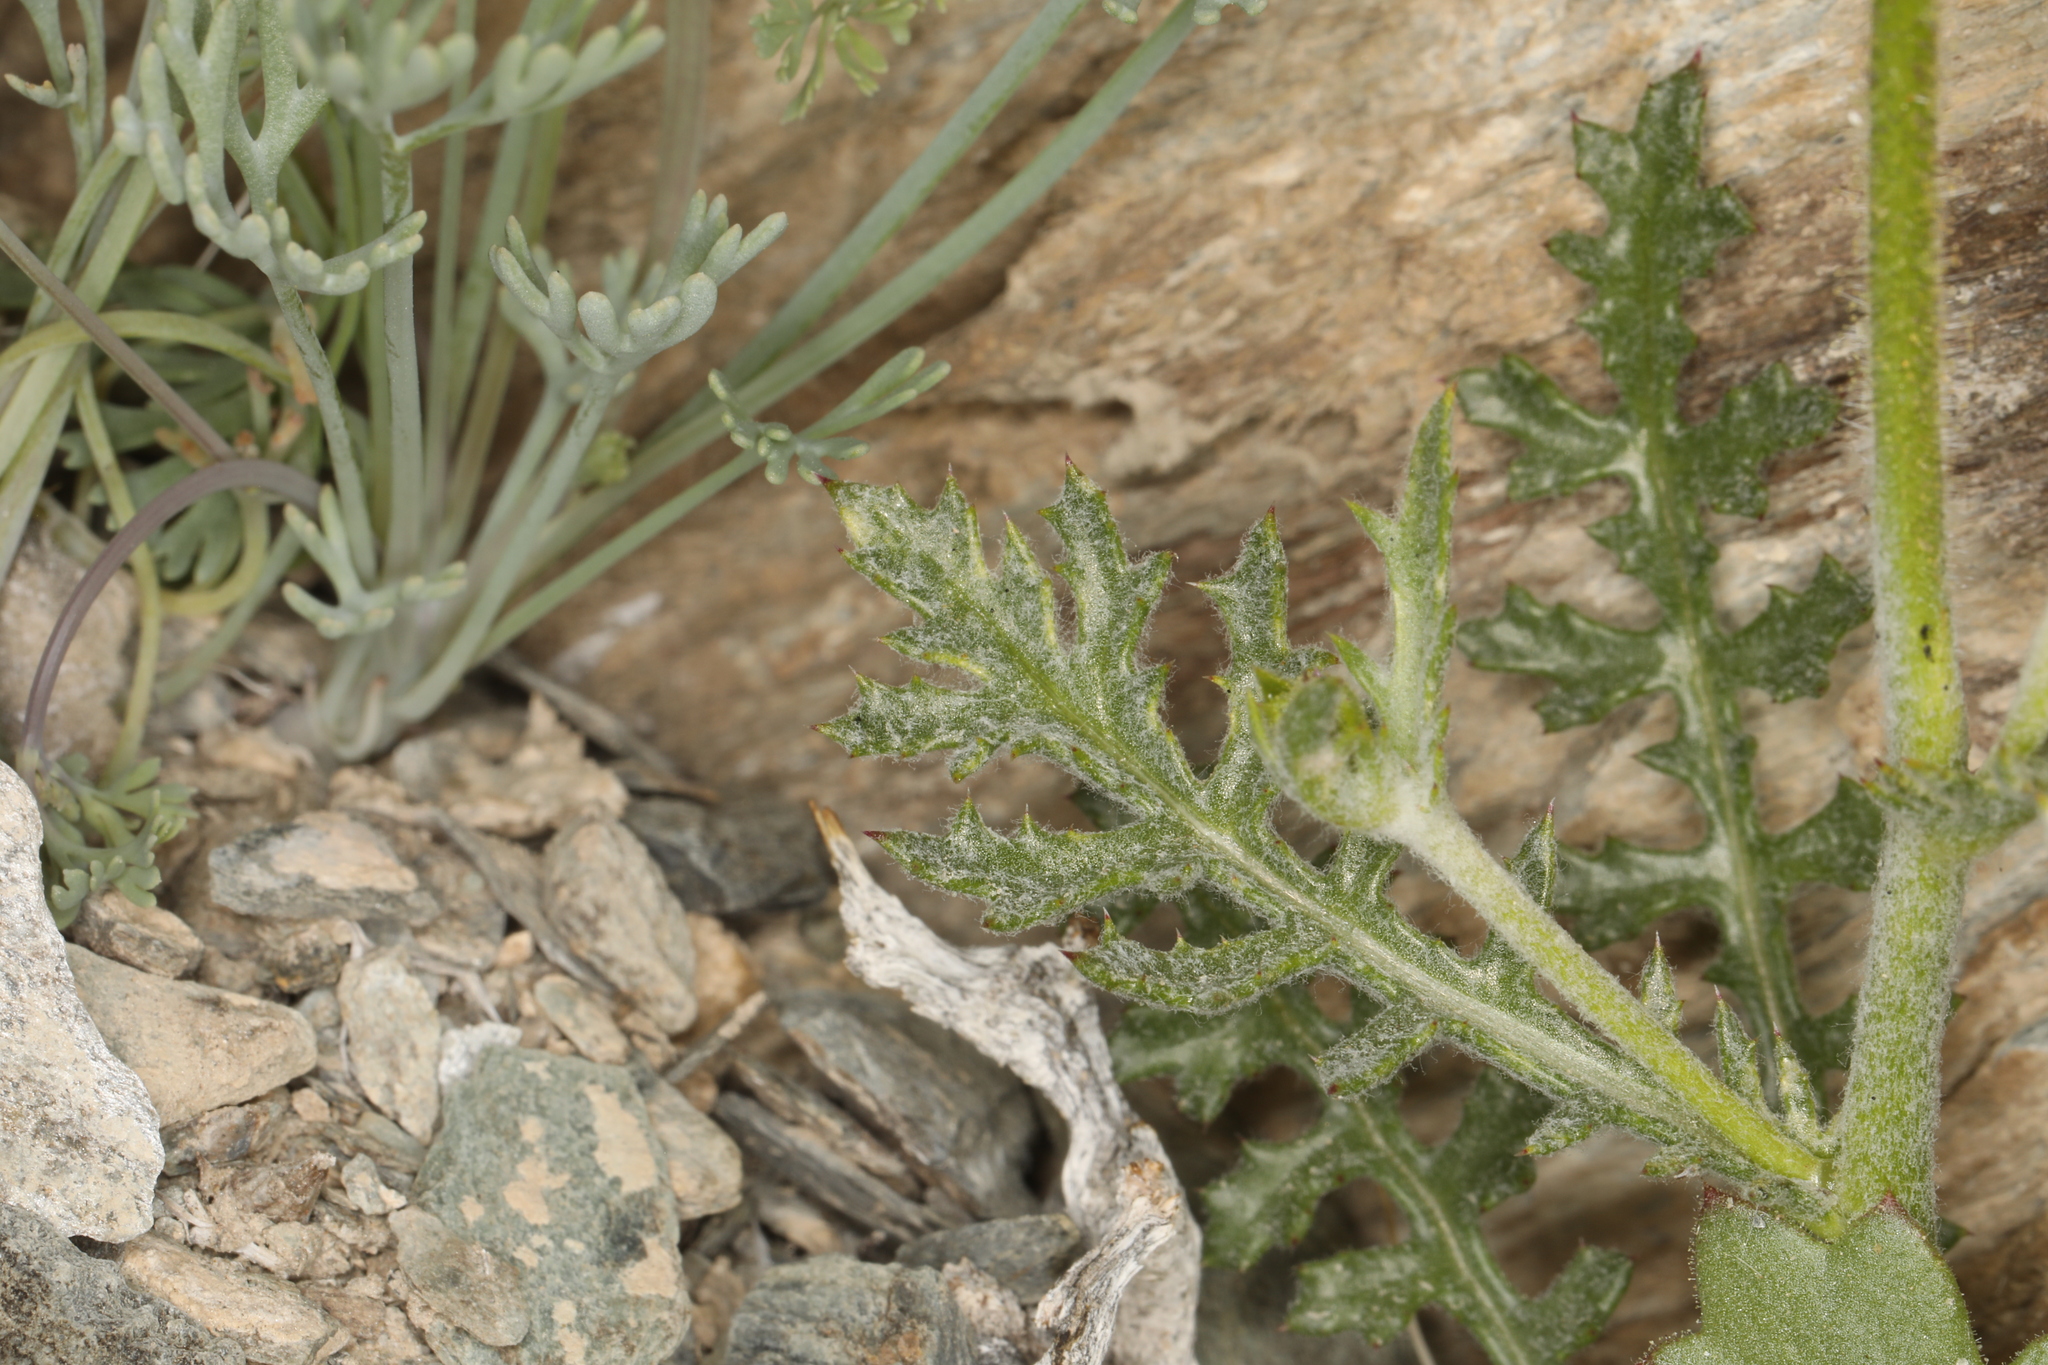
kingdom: Plantae
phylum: Tracheophyta
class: Magnoliopsida
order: Ericales
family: Polemoniaceae
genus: Gilia
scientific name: Gilia cana
